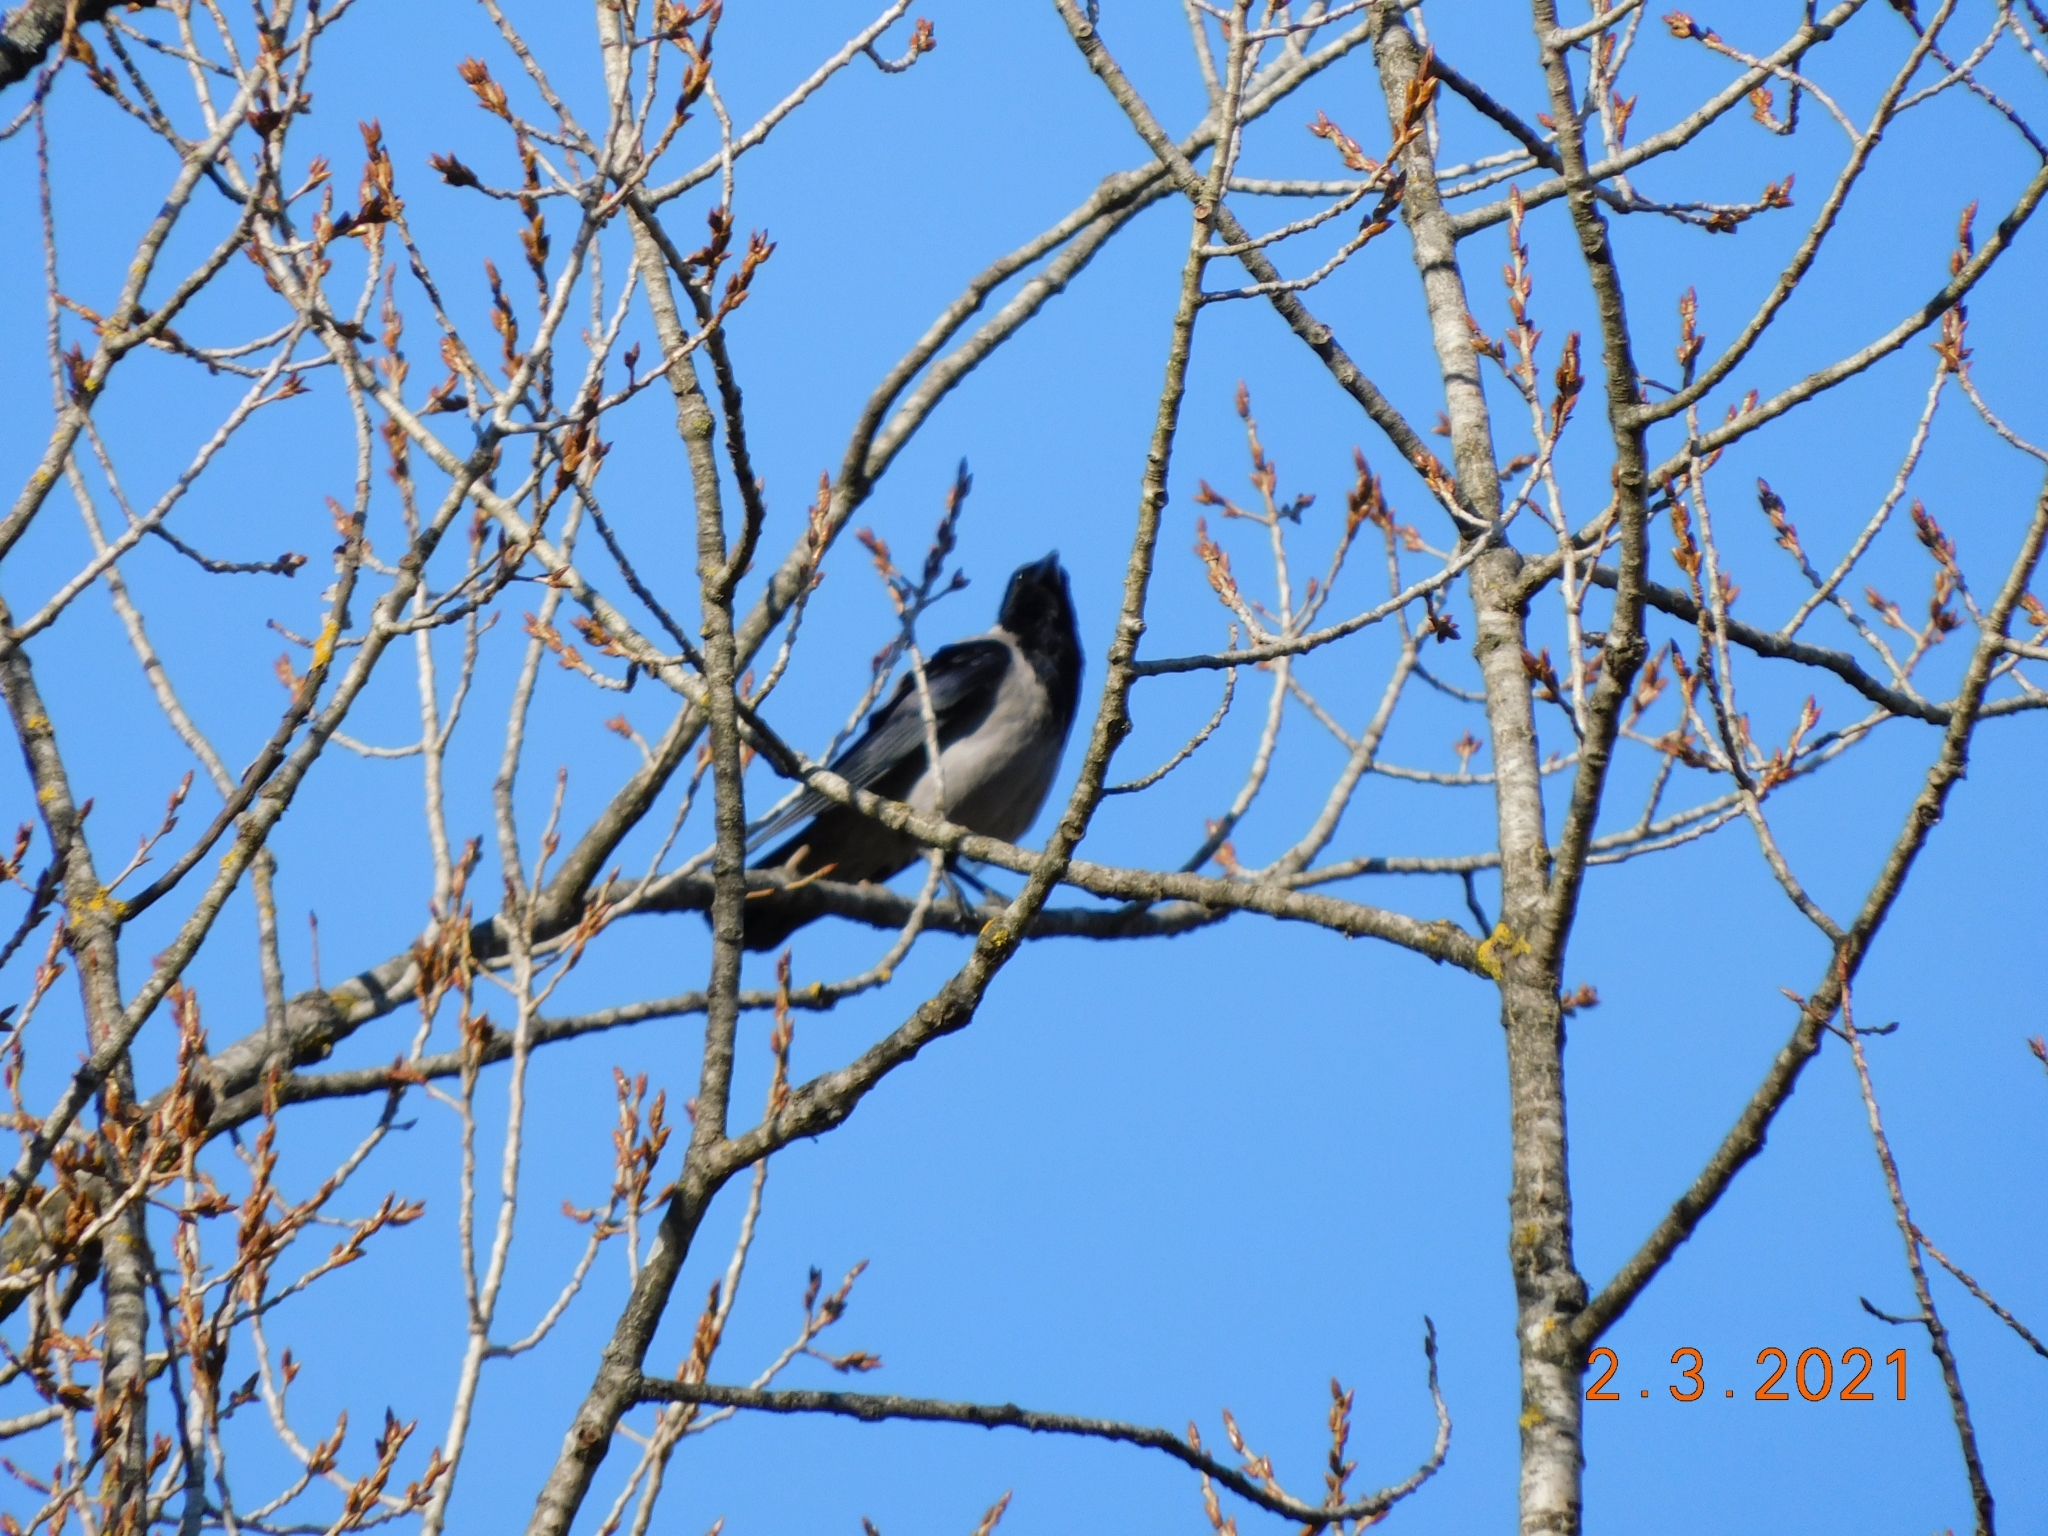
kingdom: Animalia
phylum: Chordata
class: Aves
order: Passeriformes
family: Corvidae
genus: Corvus
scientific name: Corvus cornix
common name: Hooded crow
